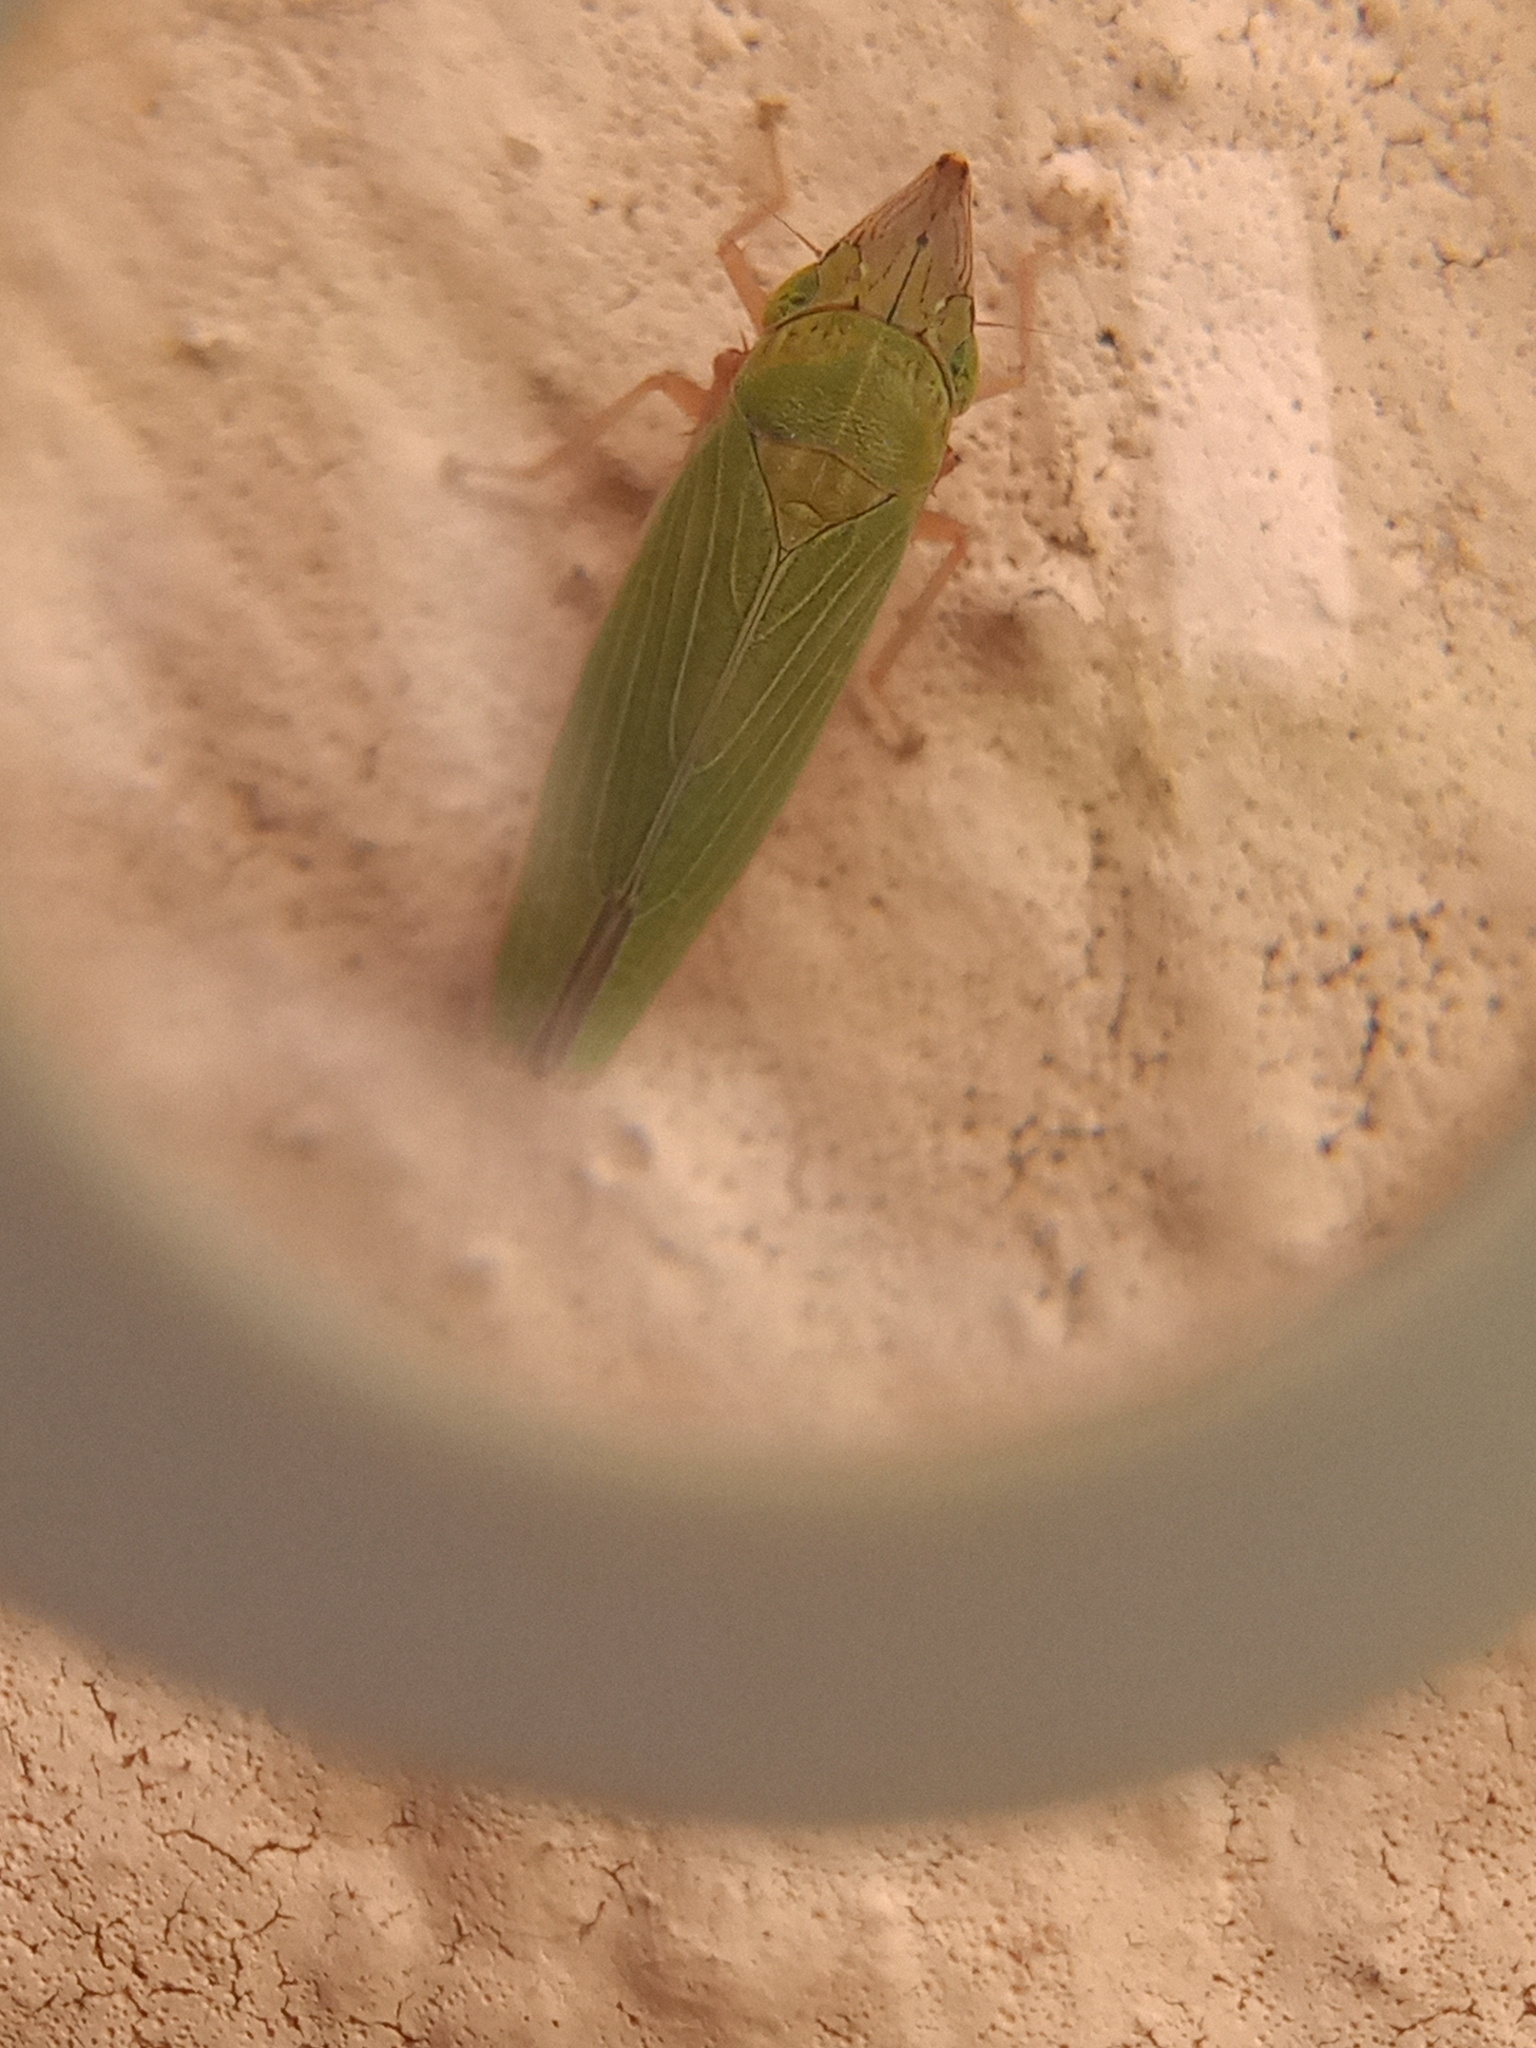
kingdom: Animalia
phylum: Arthropoda
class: Insecta
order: Hemiptera
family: Cicadellidae
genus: Draeculacephala
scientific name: Draeculacephala soluta
